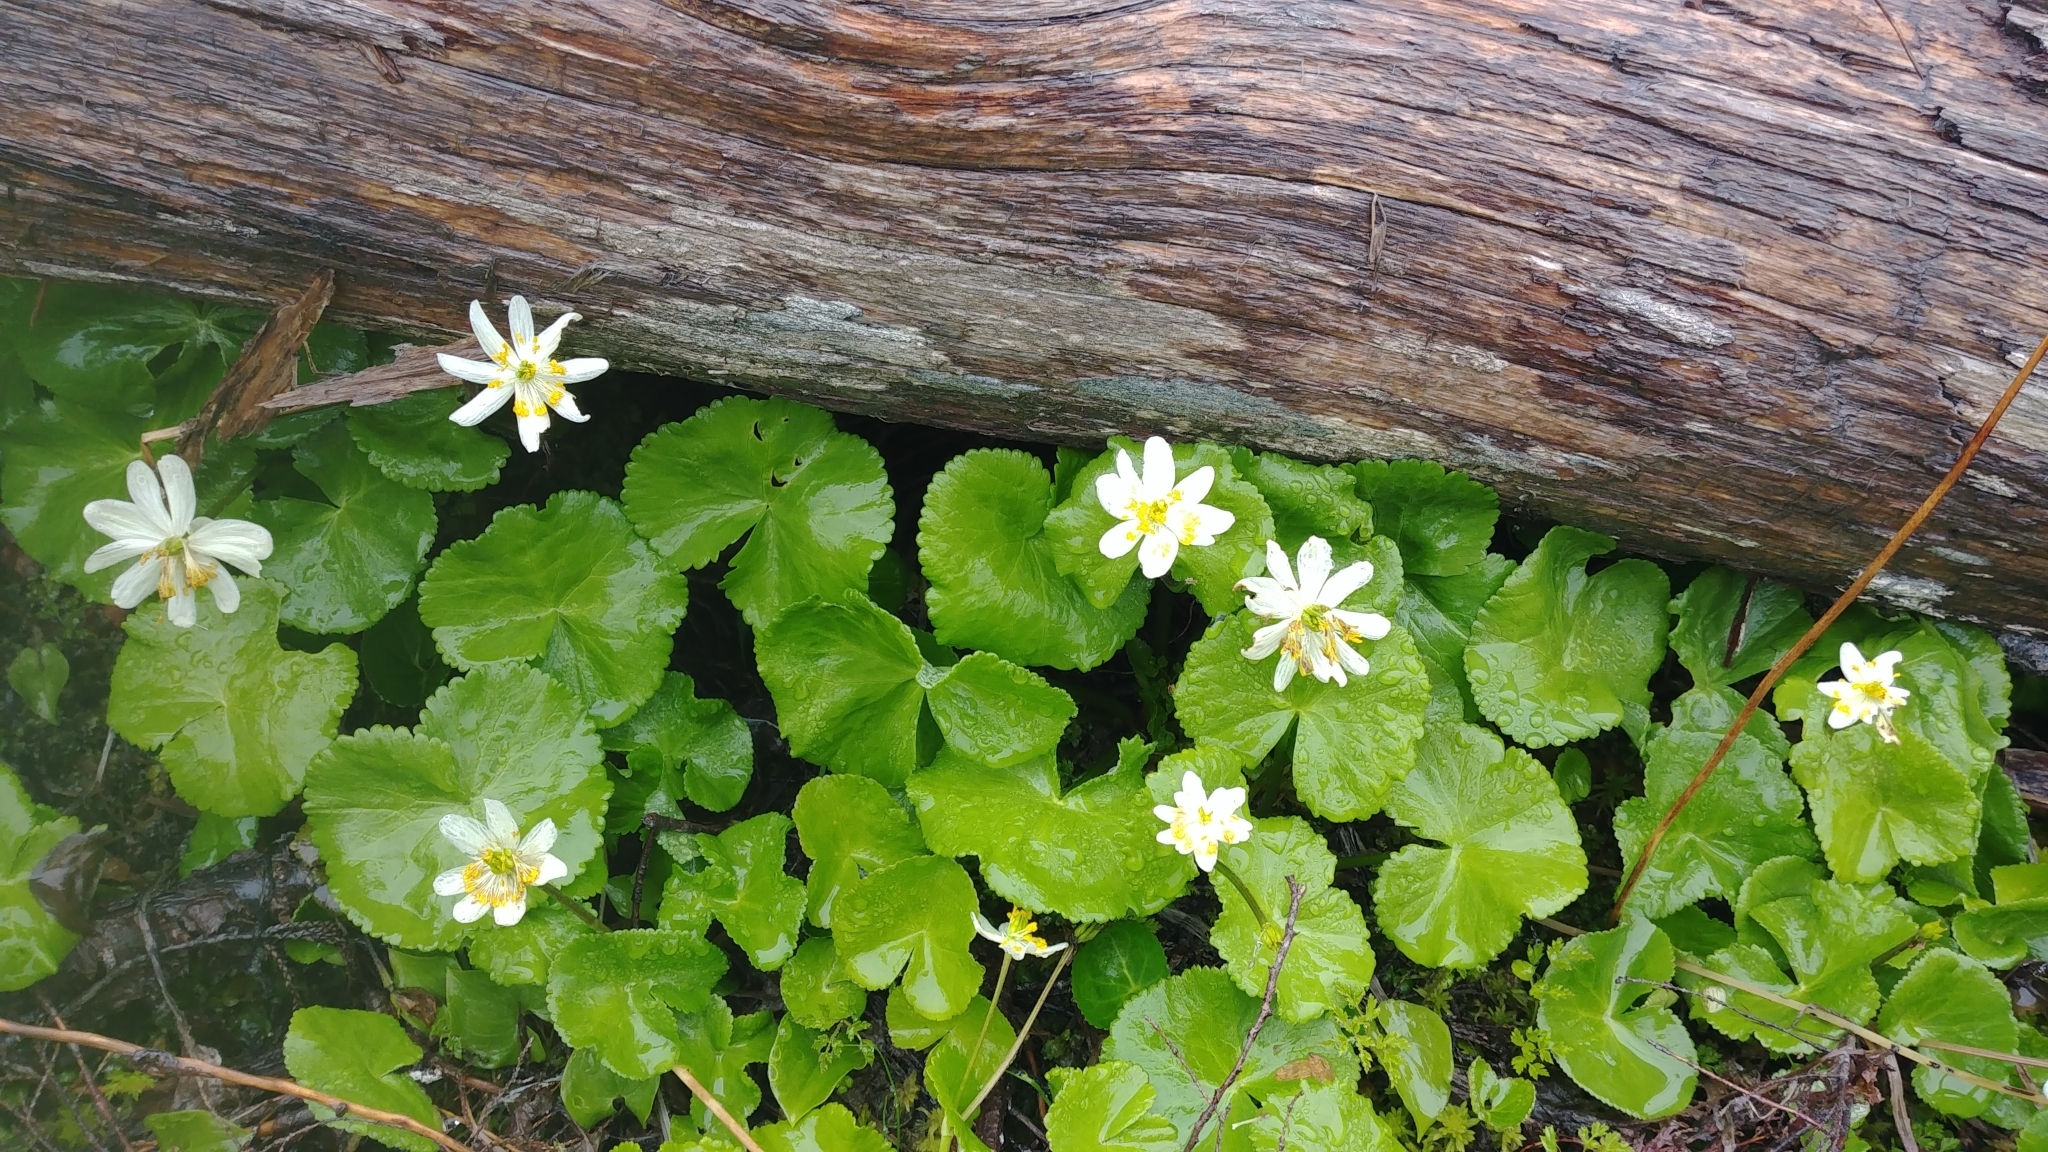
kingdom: Plantae
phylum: Tracheophyta
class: Magnoliopsida
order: Ranunculales
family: Ranunculaceae
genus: Caltha
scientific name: Caltha biflora
